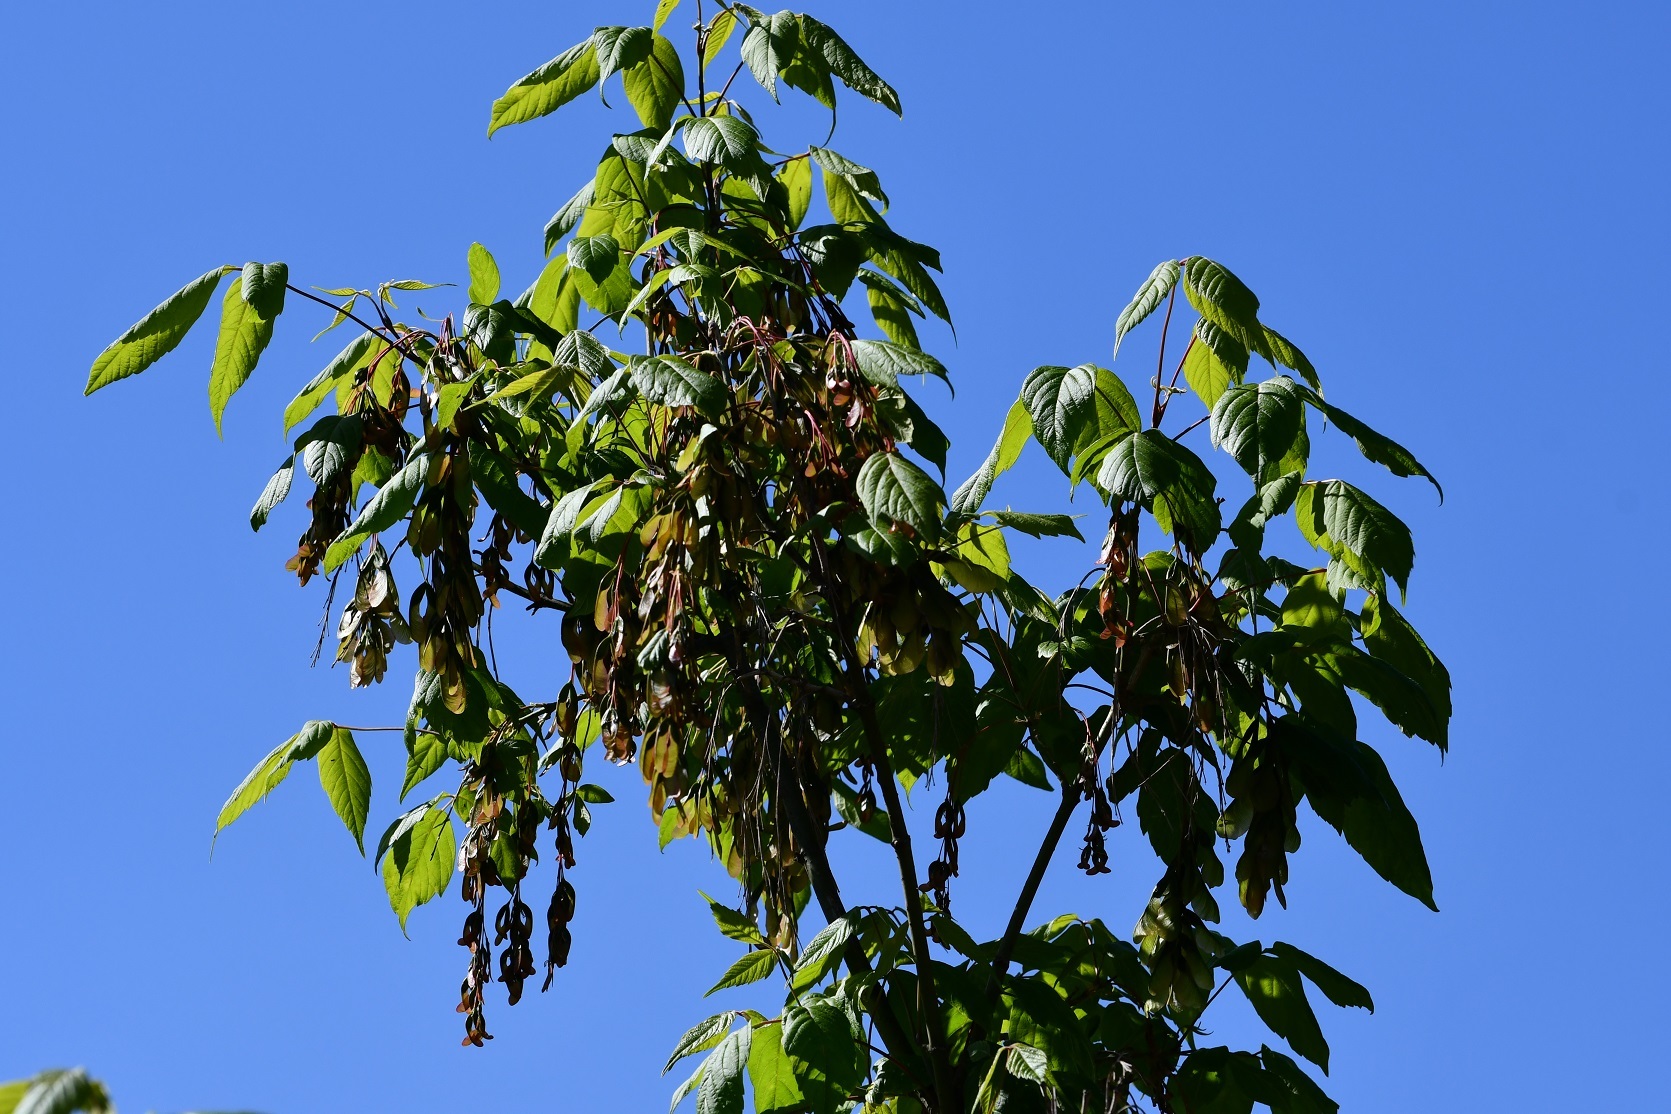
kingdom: Plantae
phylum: Tracheophyta
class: Magnoliopsida
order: Sapindales
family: Sapindaceae
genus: Acer
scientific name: Acer negundo
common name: Ashleaf maple
